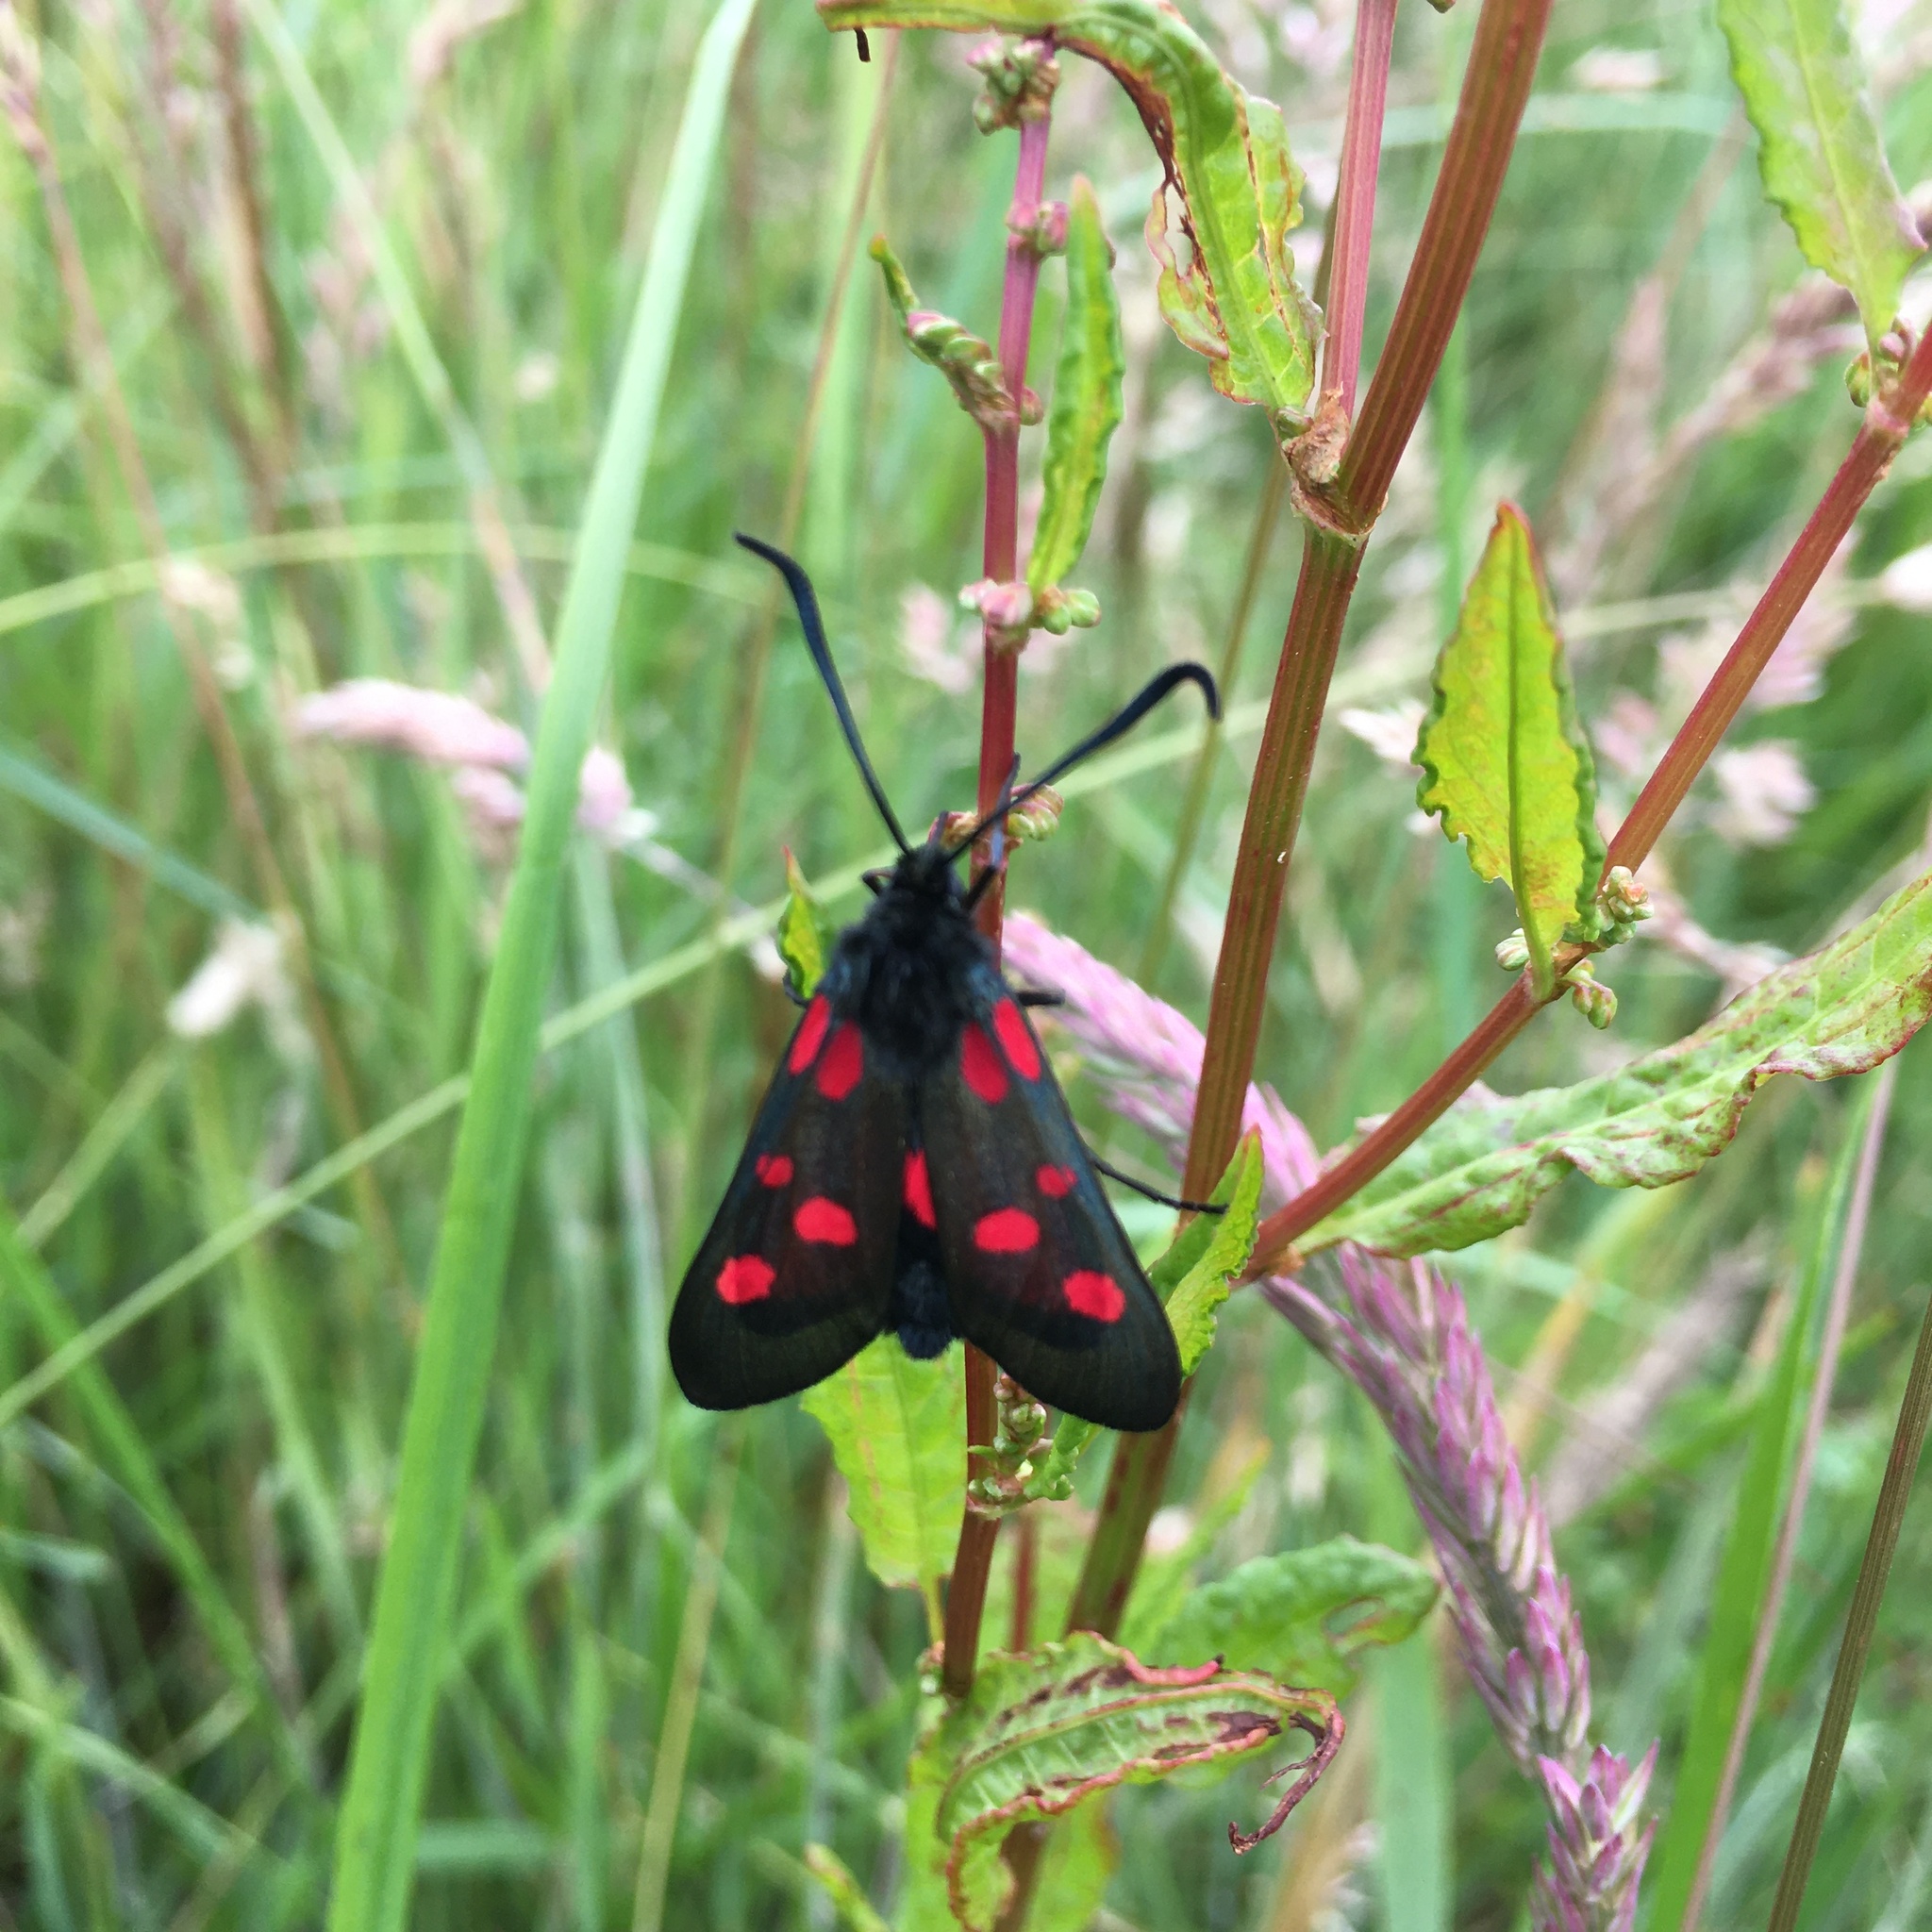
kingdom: Animalia
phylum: Arthropoda
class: Insecta
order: Lepidoptera
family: Zygaenidae
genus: Zygaena
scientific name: Zygaena lonicerae
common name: Narrow-bordered five-spot burnet
